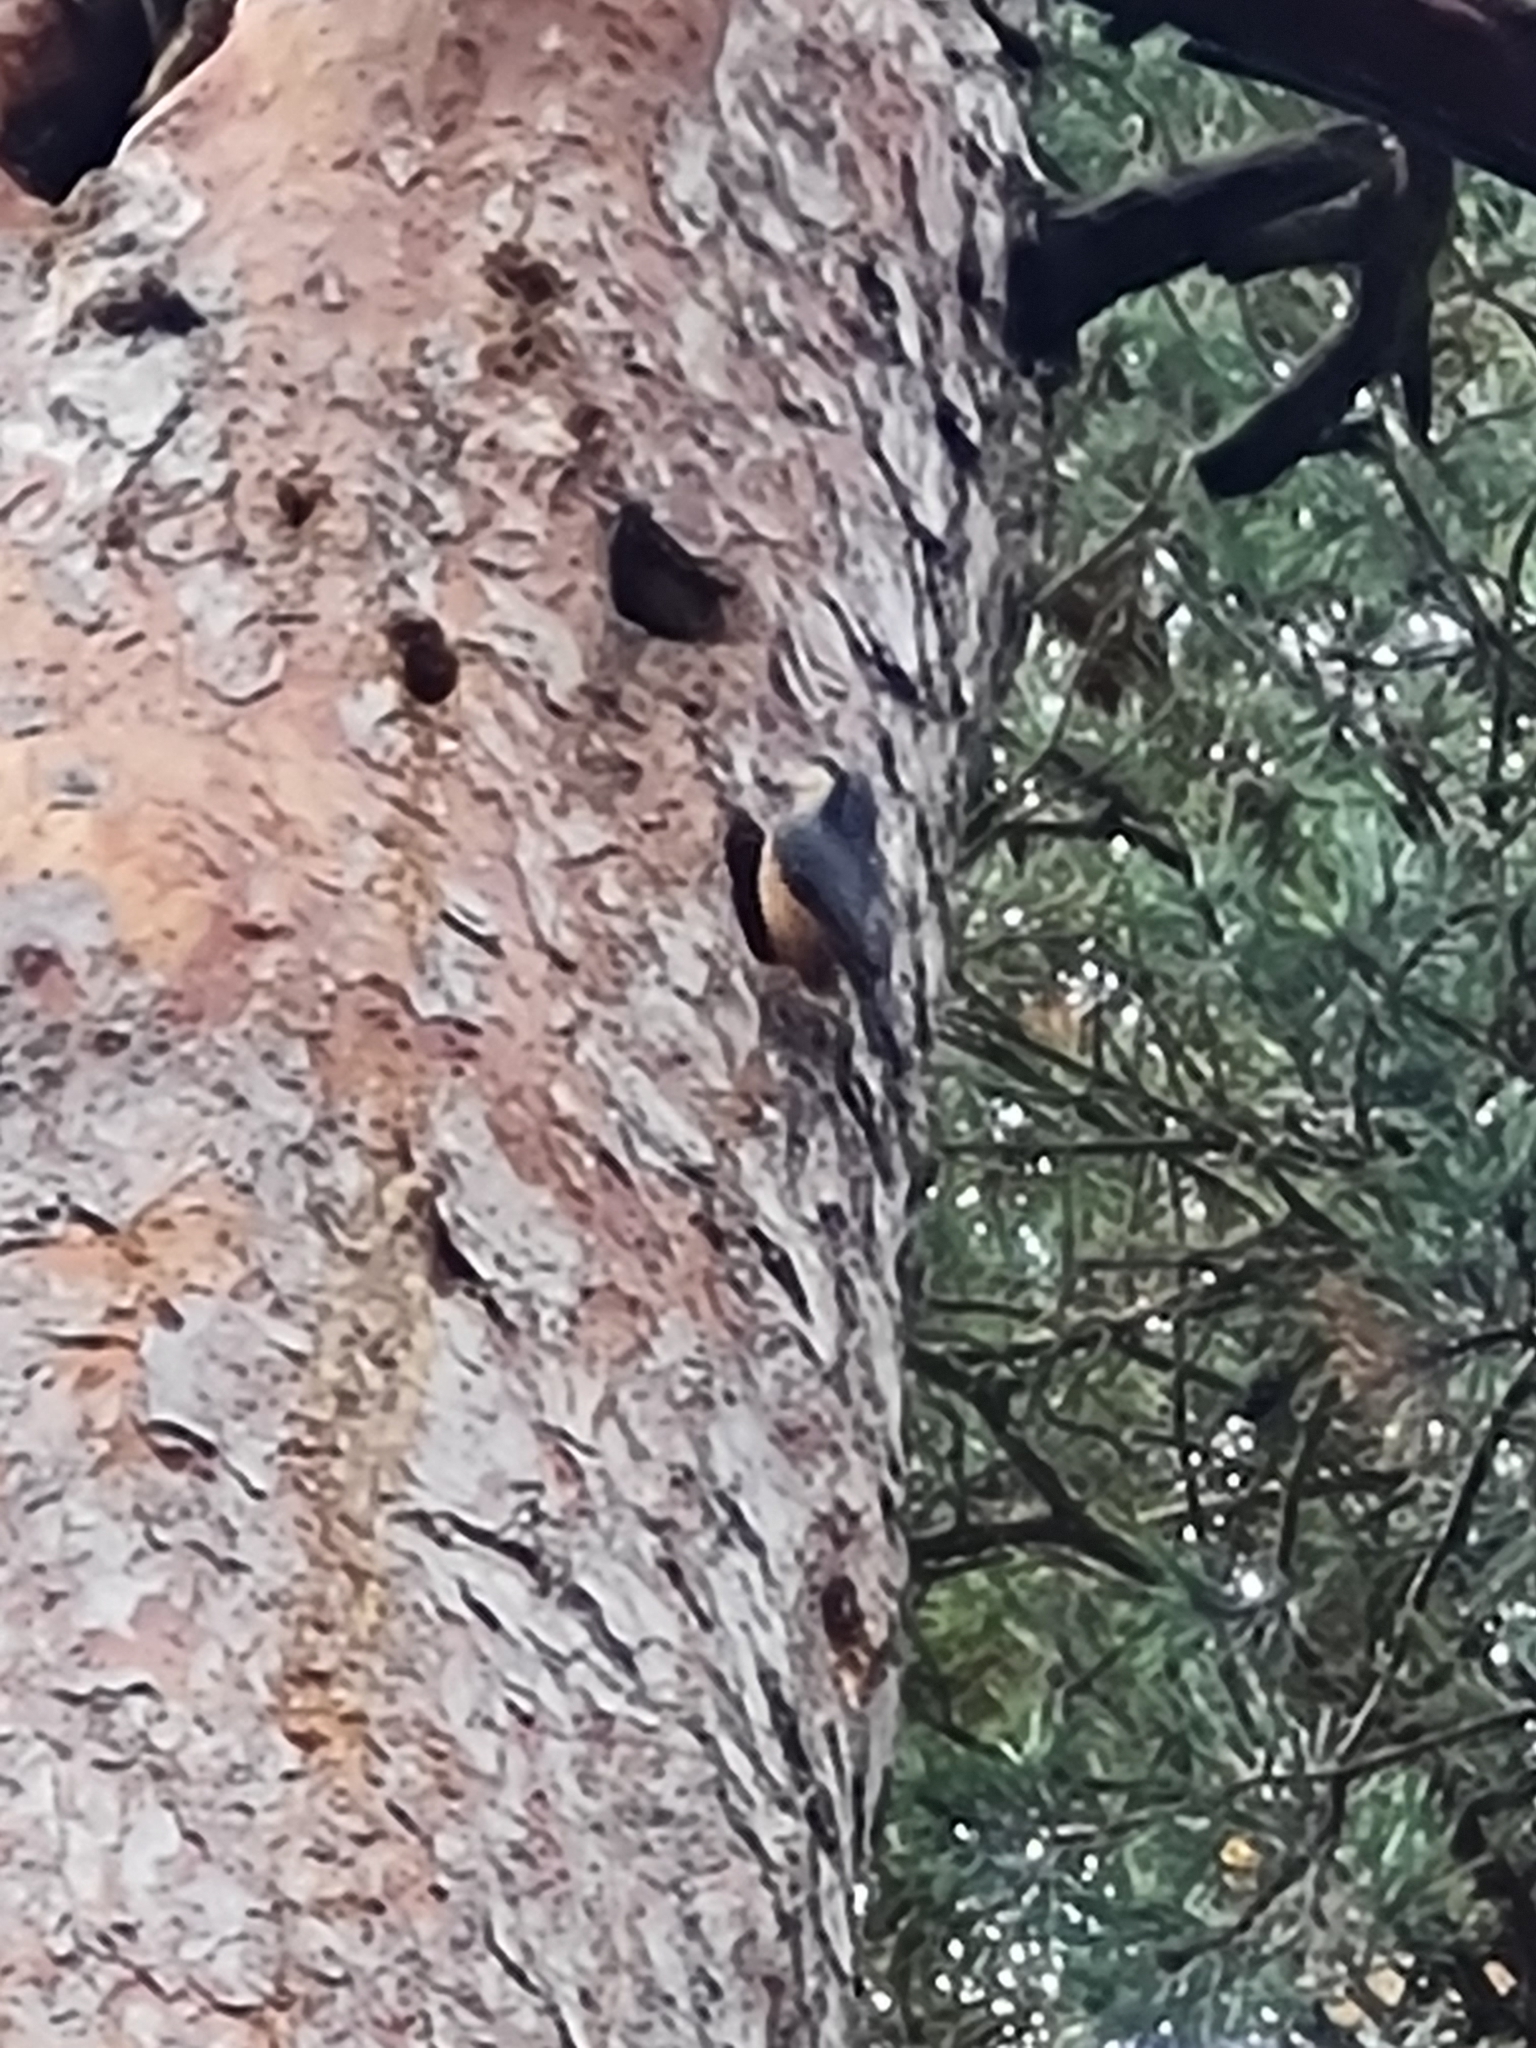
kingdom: Animalia
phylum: Chordata
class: Aves
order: Passeriformes
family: Sittidae
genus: Sitta
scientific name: Sitta europaea
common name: Eurasian nuthatch
